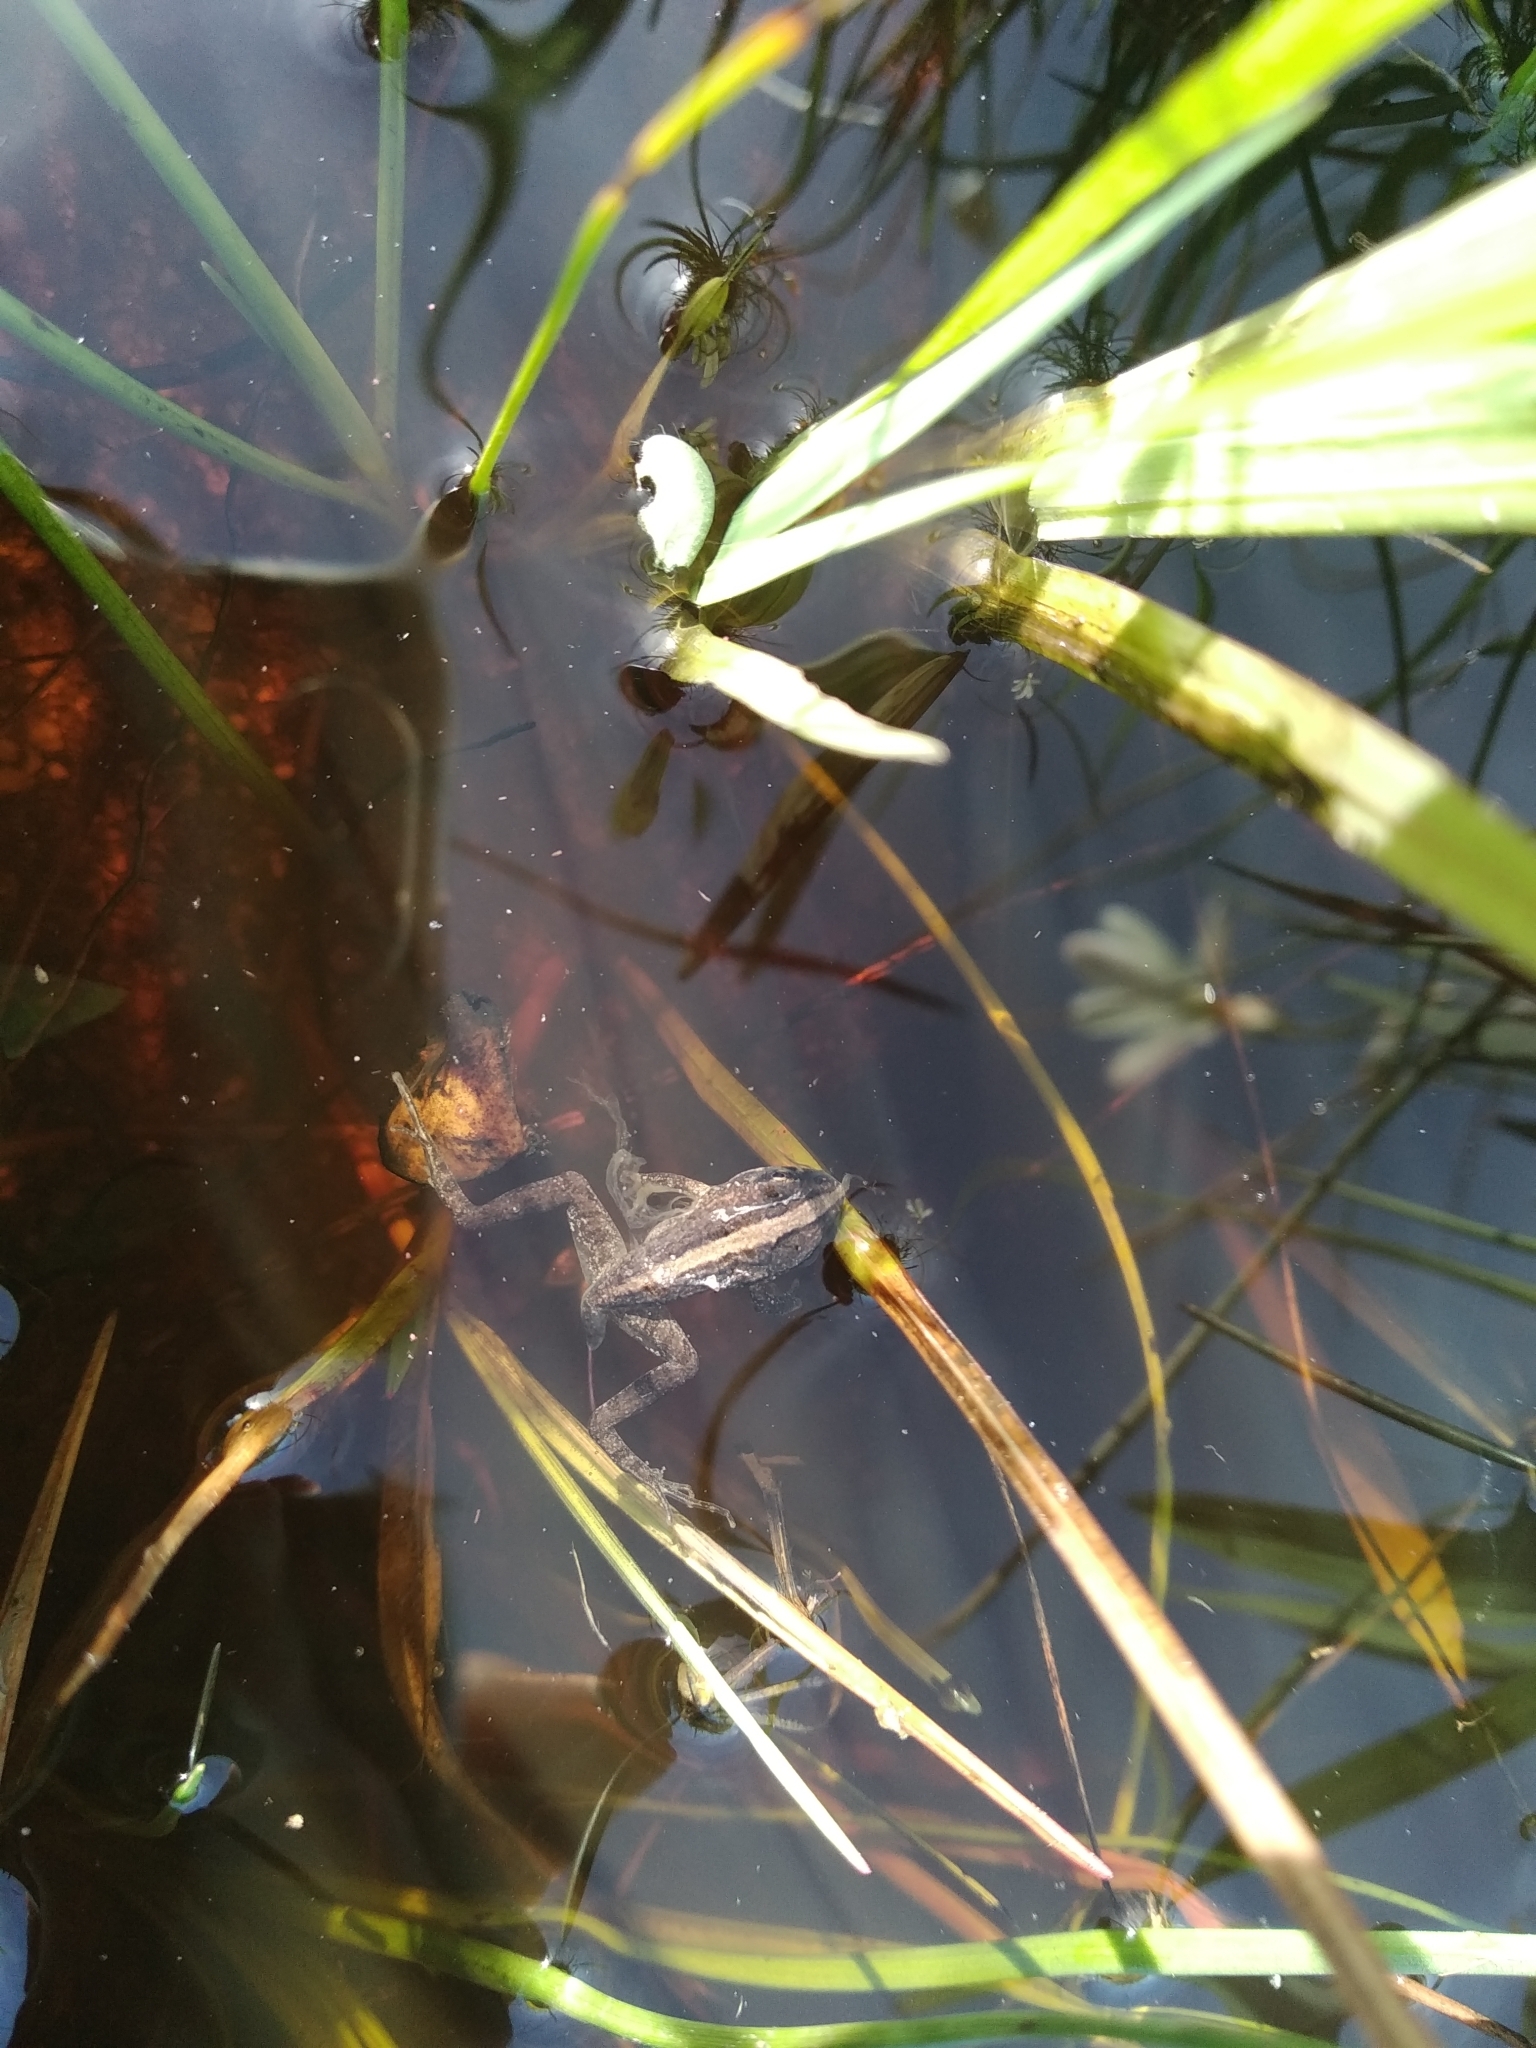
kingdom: Animalia
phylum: Chordata
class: Amphibia
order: Anura
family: Pyxicephalidae
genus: Strongylopus
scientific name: Strongylopus grayii
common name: Gray's stream frog
